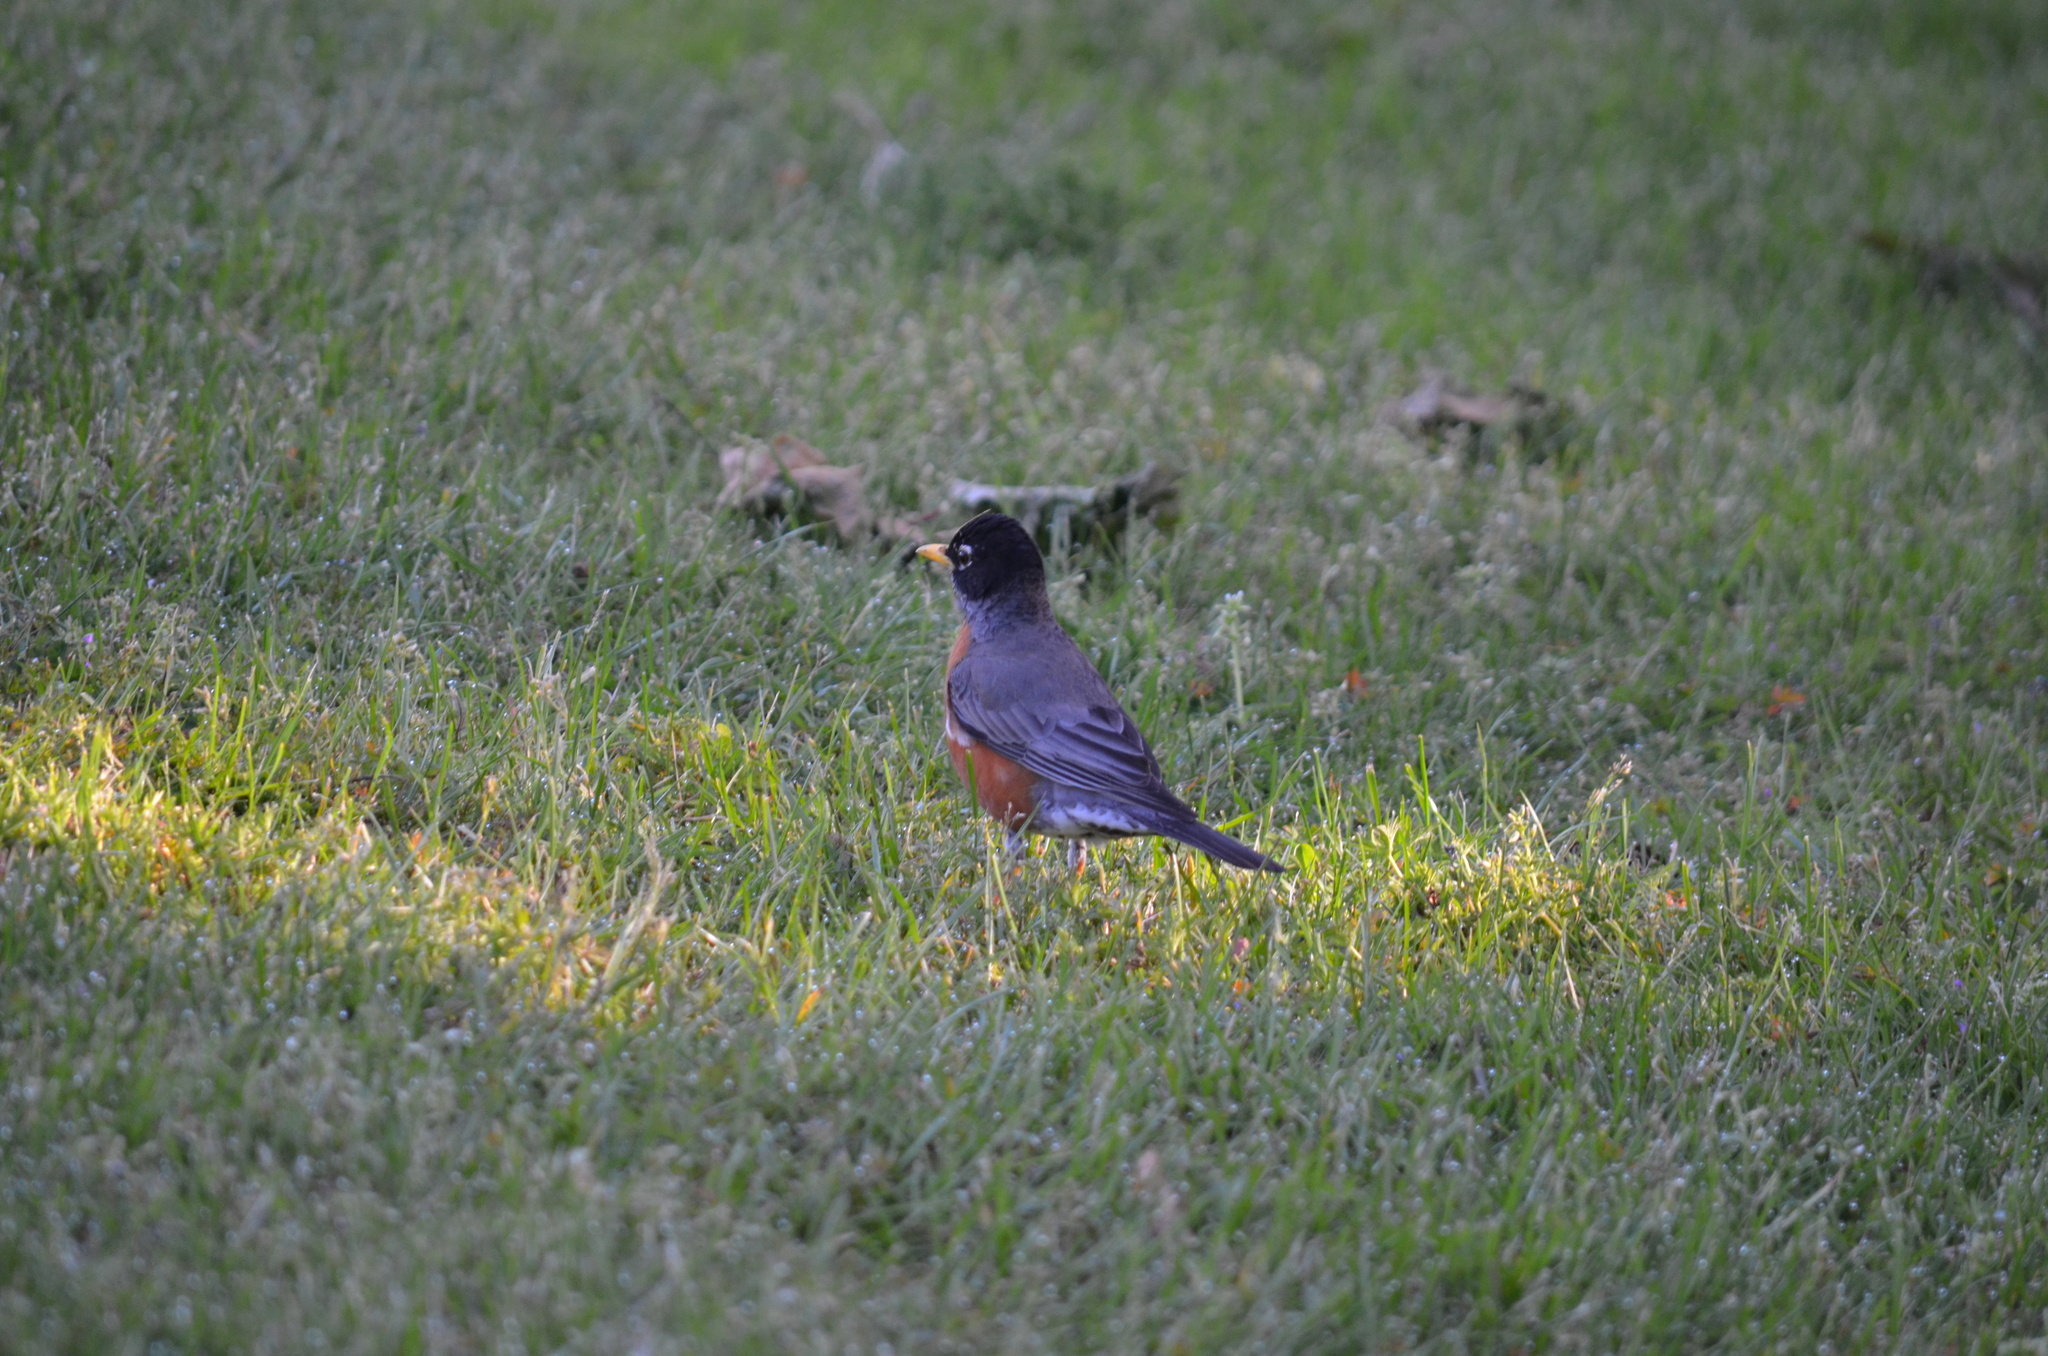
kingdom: Animalia
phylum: Chordata
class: Aves
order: Passeriformes
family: Turdidae
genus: Turdus
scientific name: Turdus migratorius
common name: American robin
